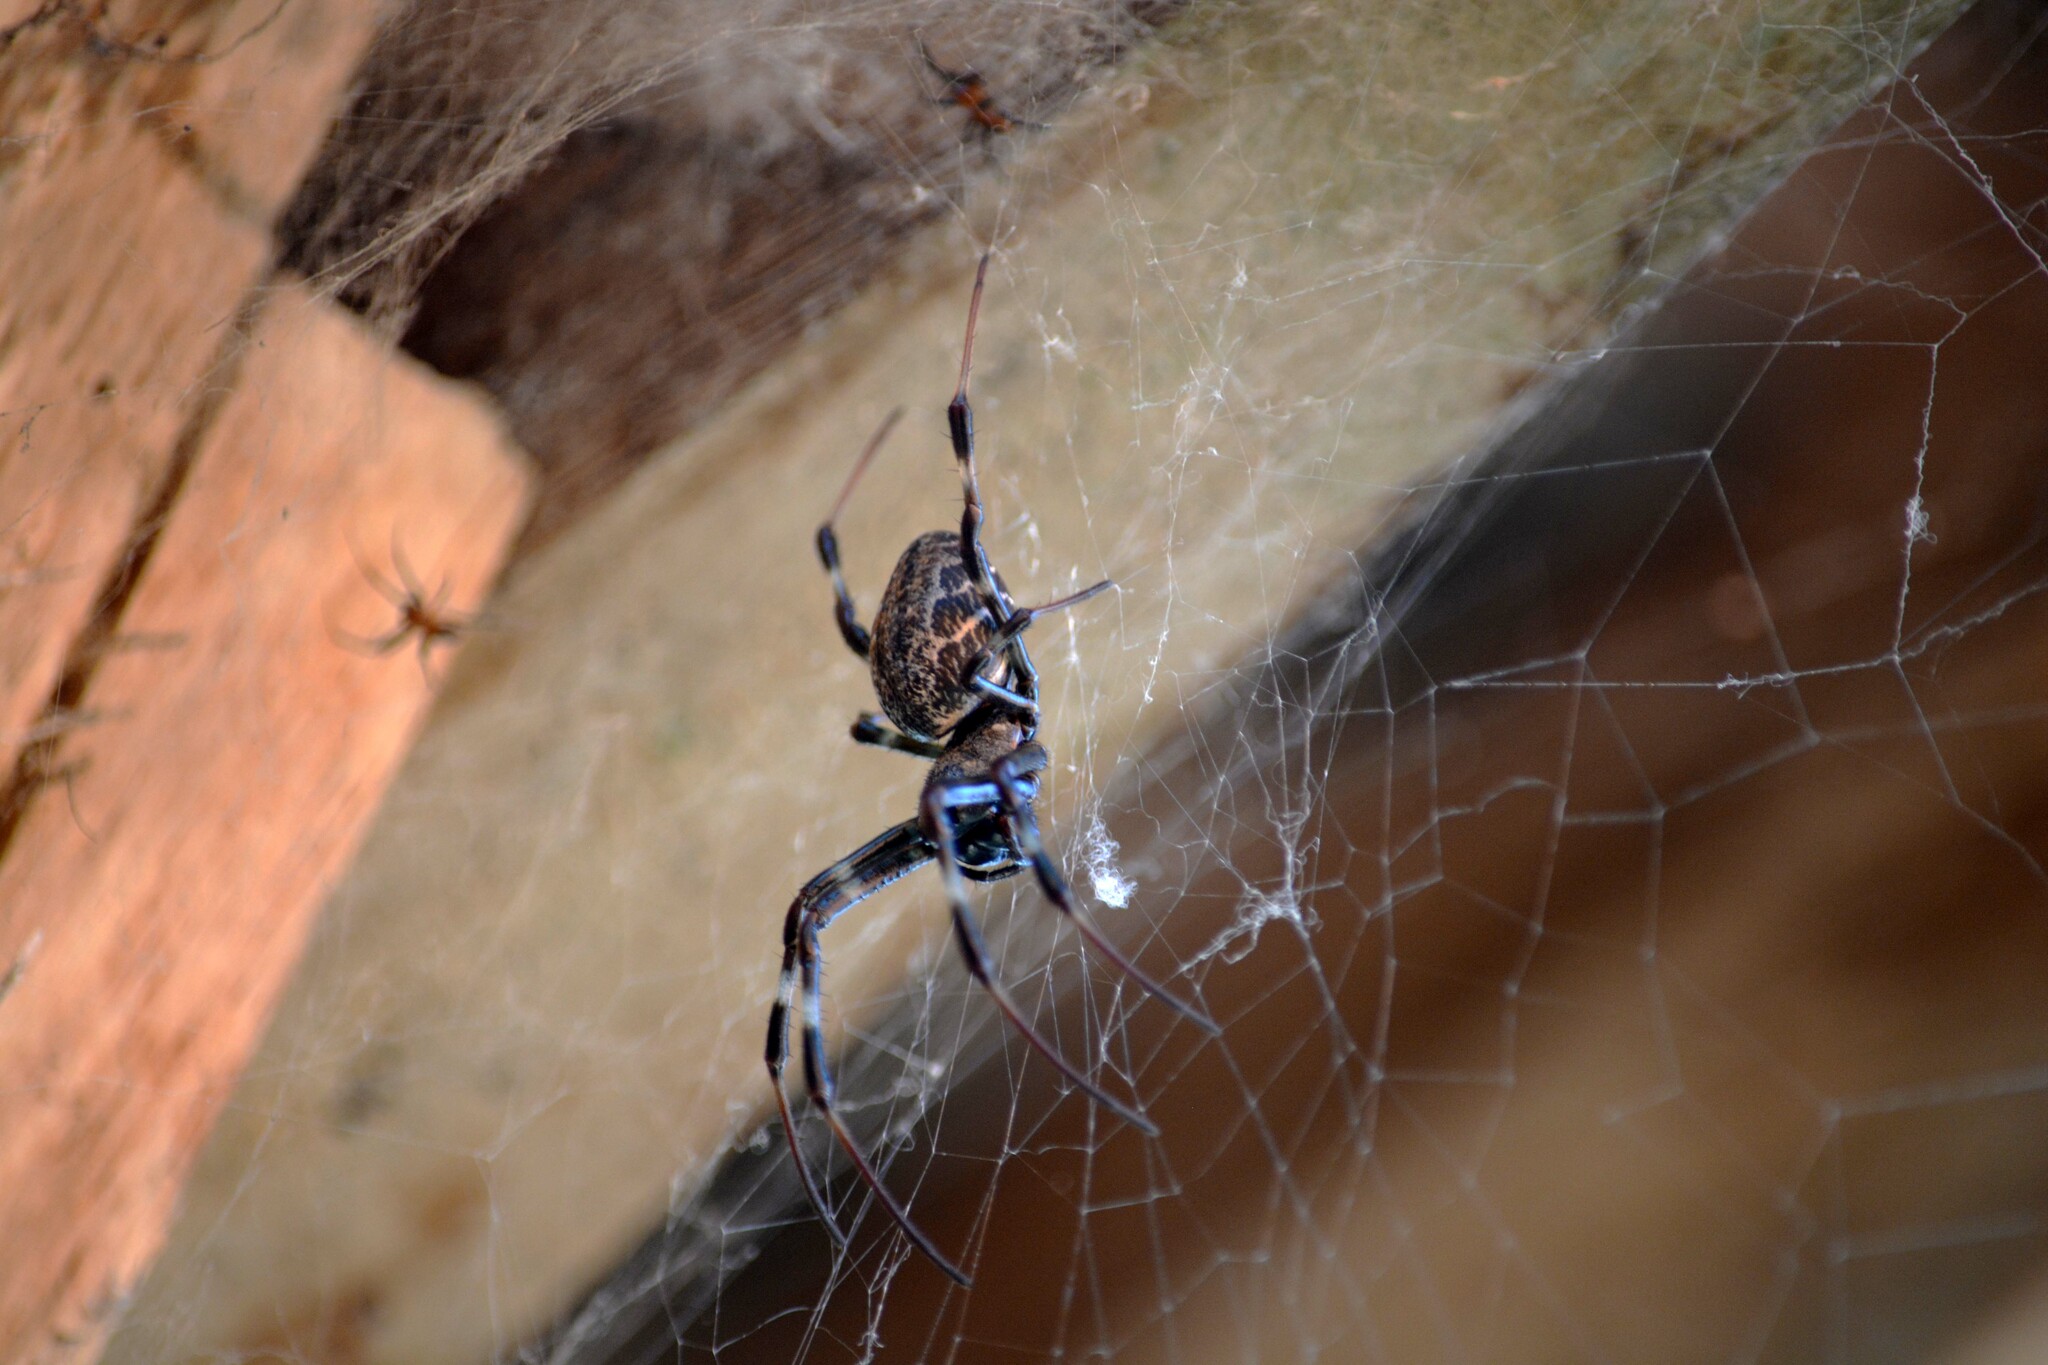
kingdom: Animalia
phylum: Arthropoda
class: Arachnida
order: Araneae
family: Araneidae
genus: Nephilengys
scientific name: Nephilengys malabarensis
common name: Asian hermit spider
